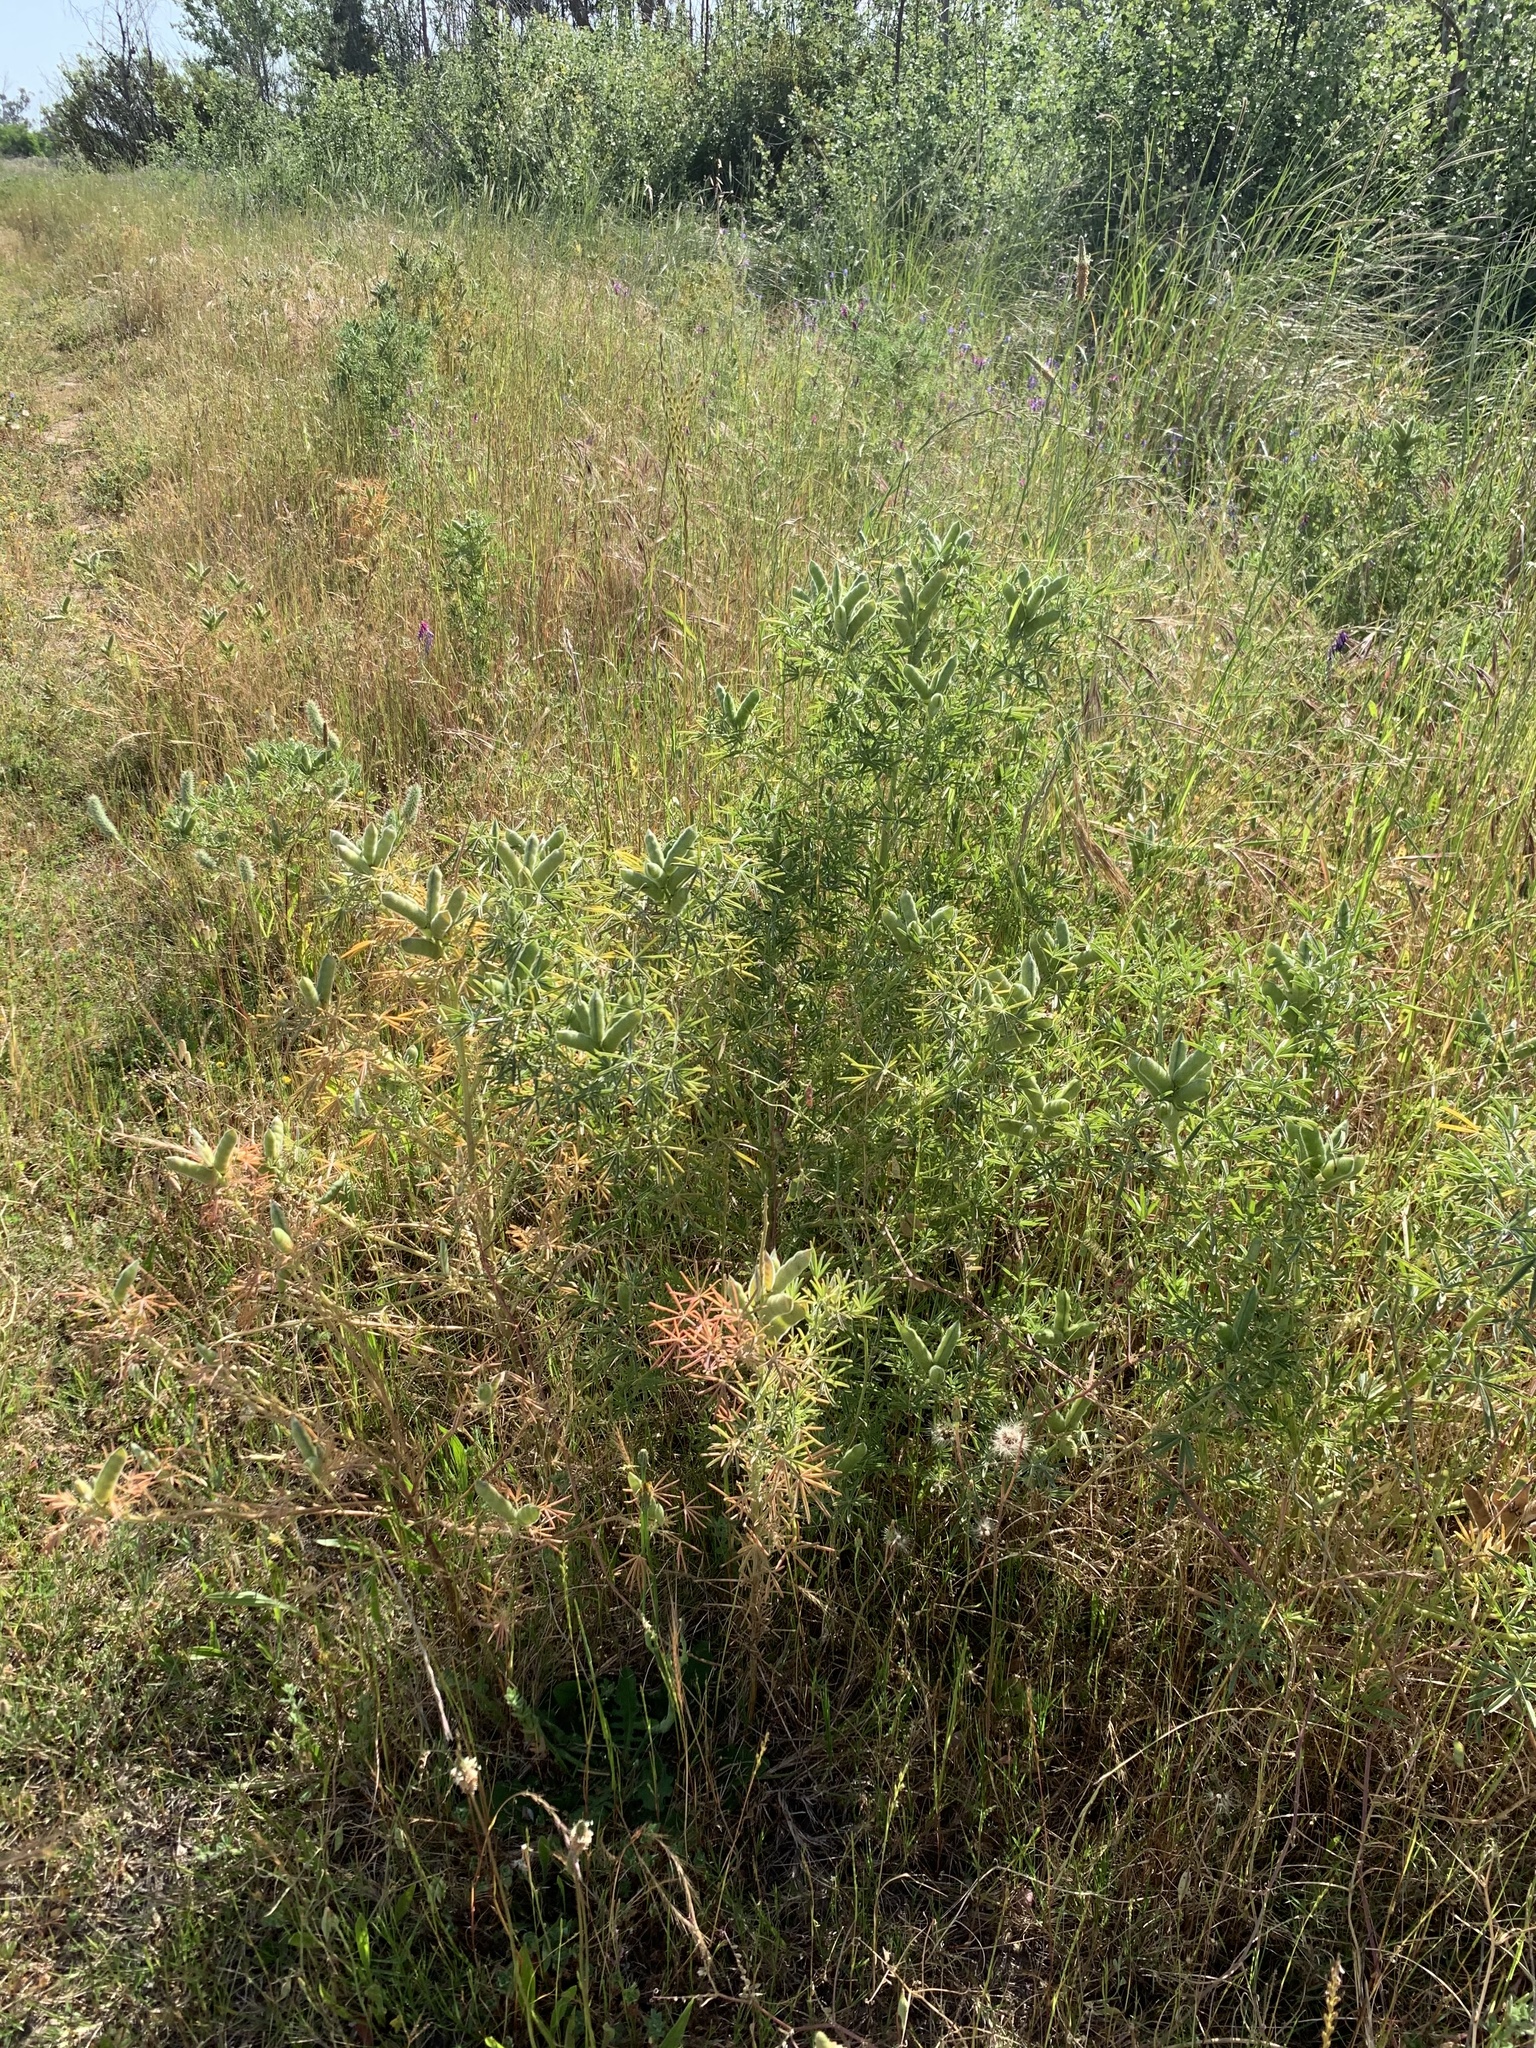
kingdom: Plantae
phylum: Tracheophyta
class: Magnoliopsida
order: Fabales
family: Fabaceae
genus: Lupinus
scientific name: Lupinus angustifolius
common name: Narrow-leaved lupin
